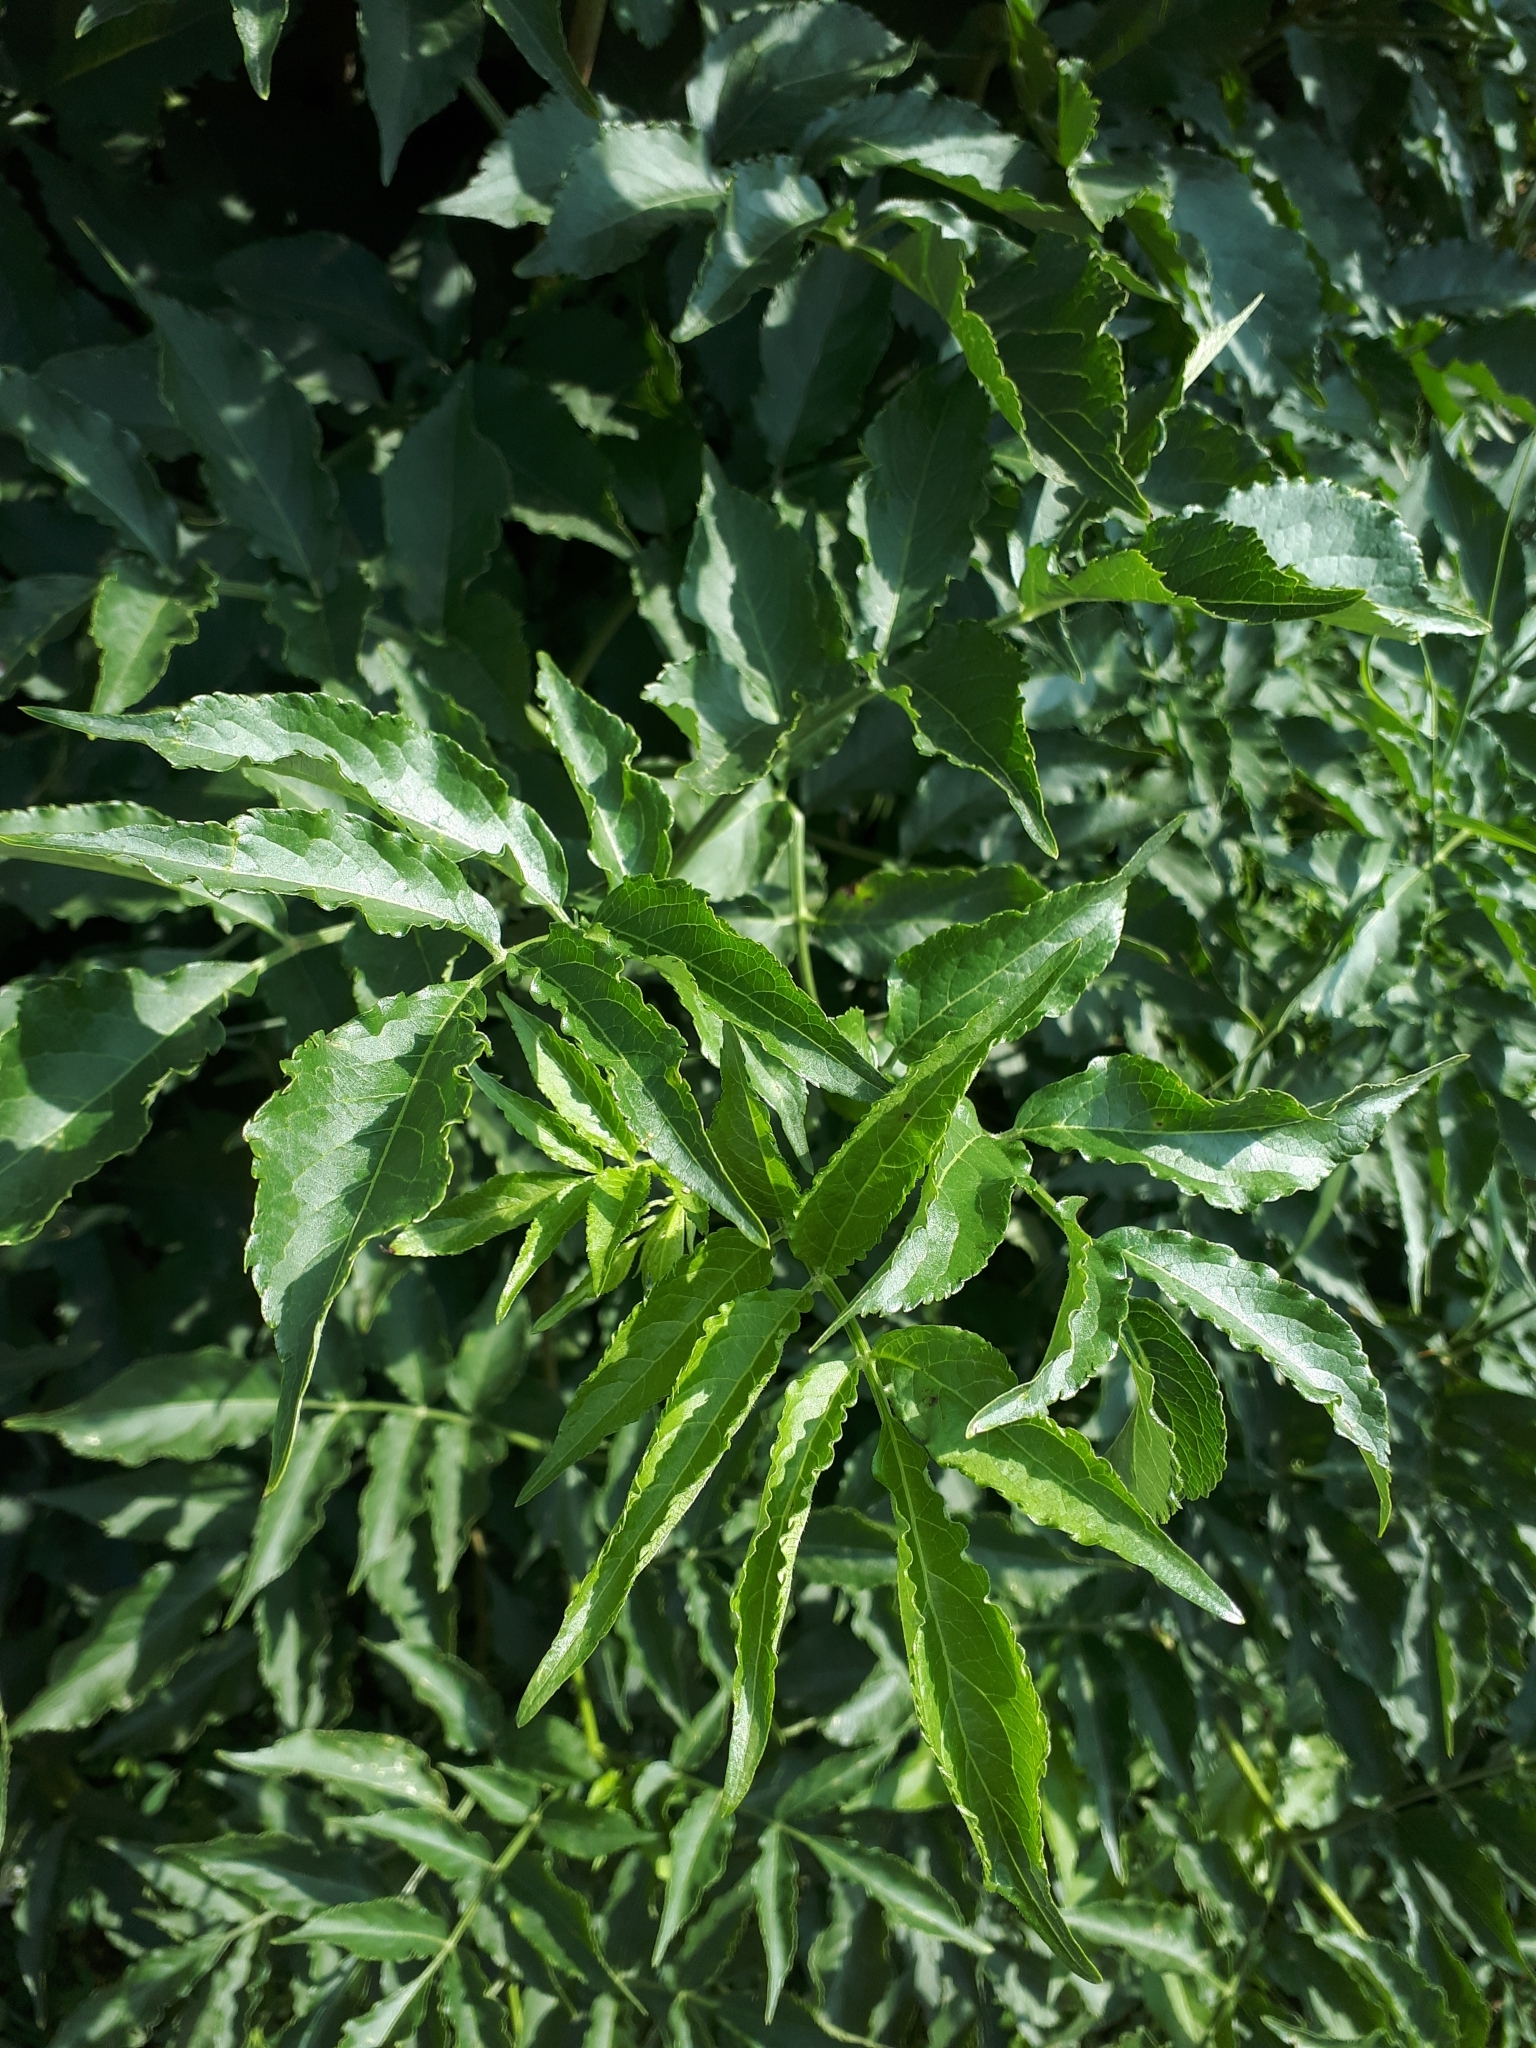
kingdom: Plantae
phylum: Tracheophyta
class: Magnoliopsida
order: Dipsacales
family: Viburnaceae
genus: Sambucus
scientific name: Sambucus ebulus
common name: Dwarf elder
